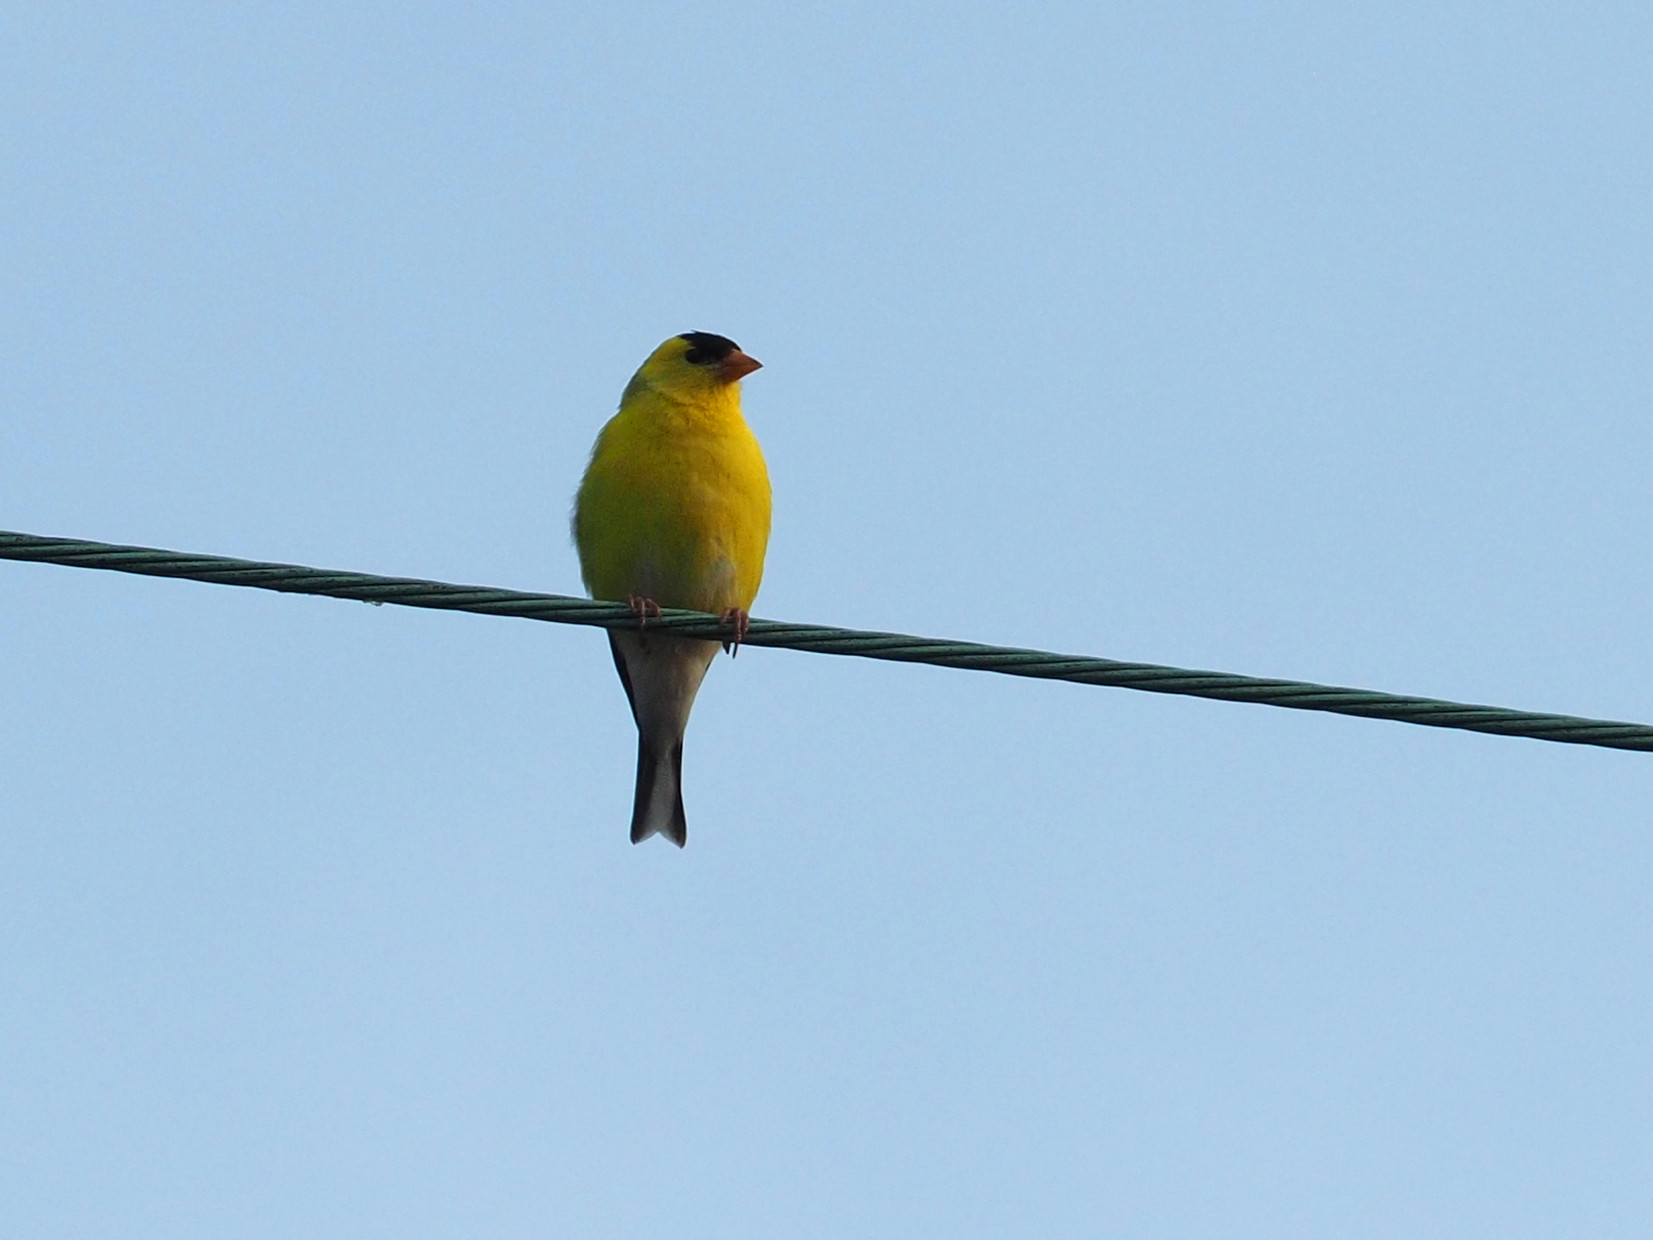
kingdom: Animalia
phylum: Chordata
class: Aves
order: Passeriformes
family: Fringillidae
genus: Spinus
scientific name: Spinus tristis
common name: American goldfinch
